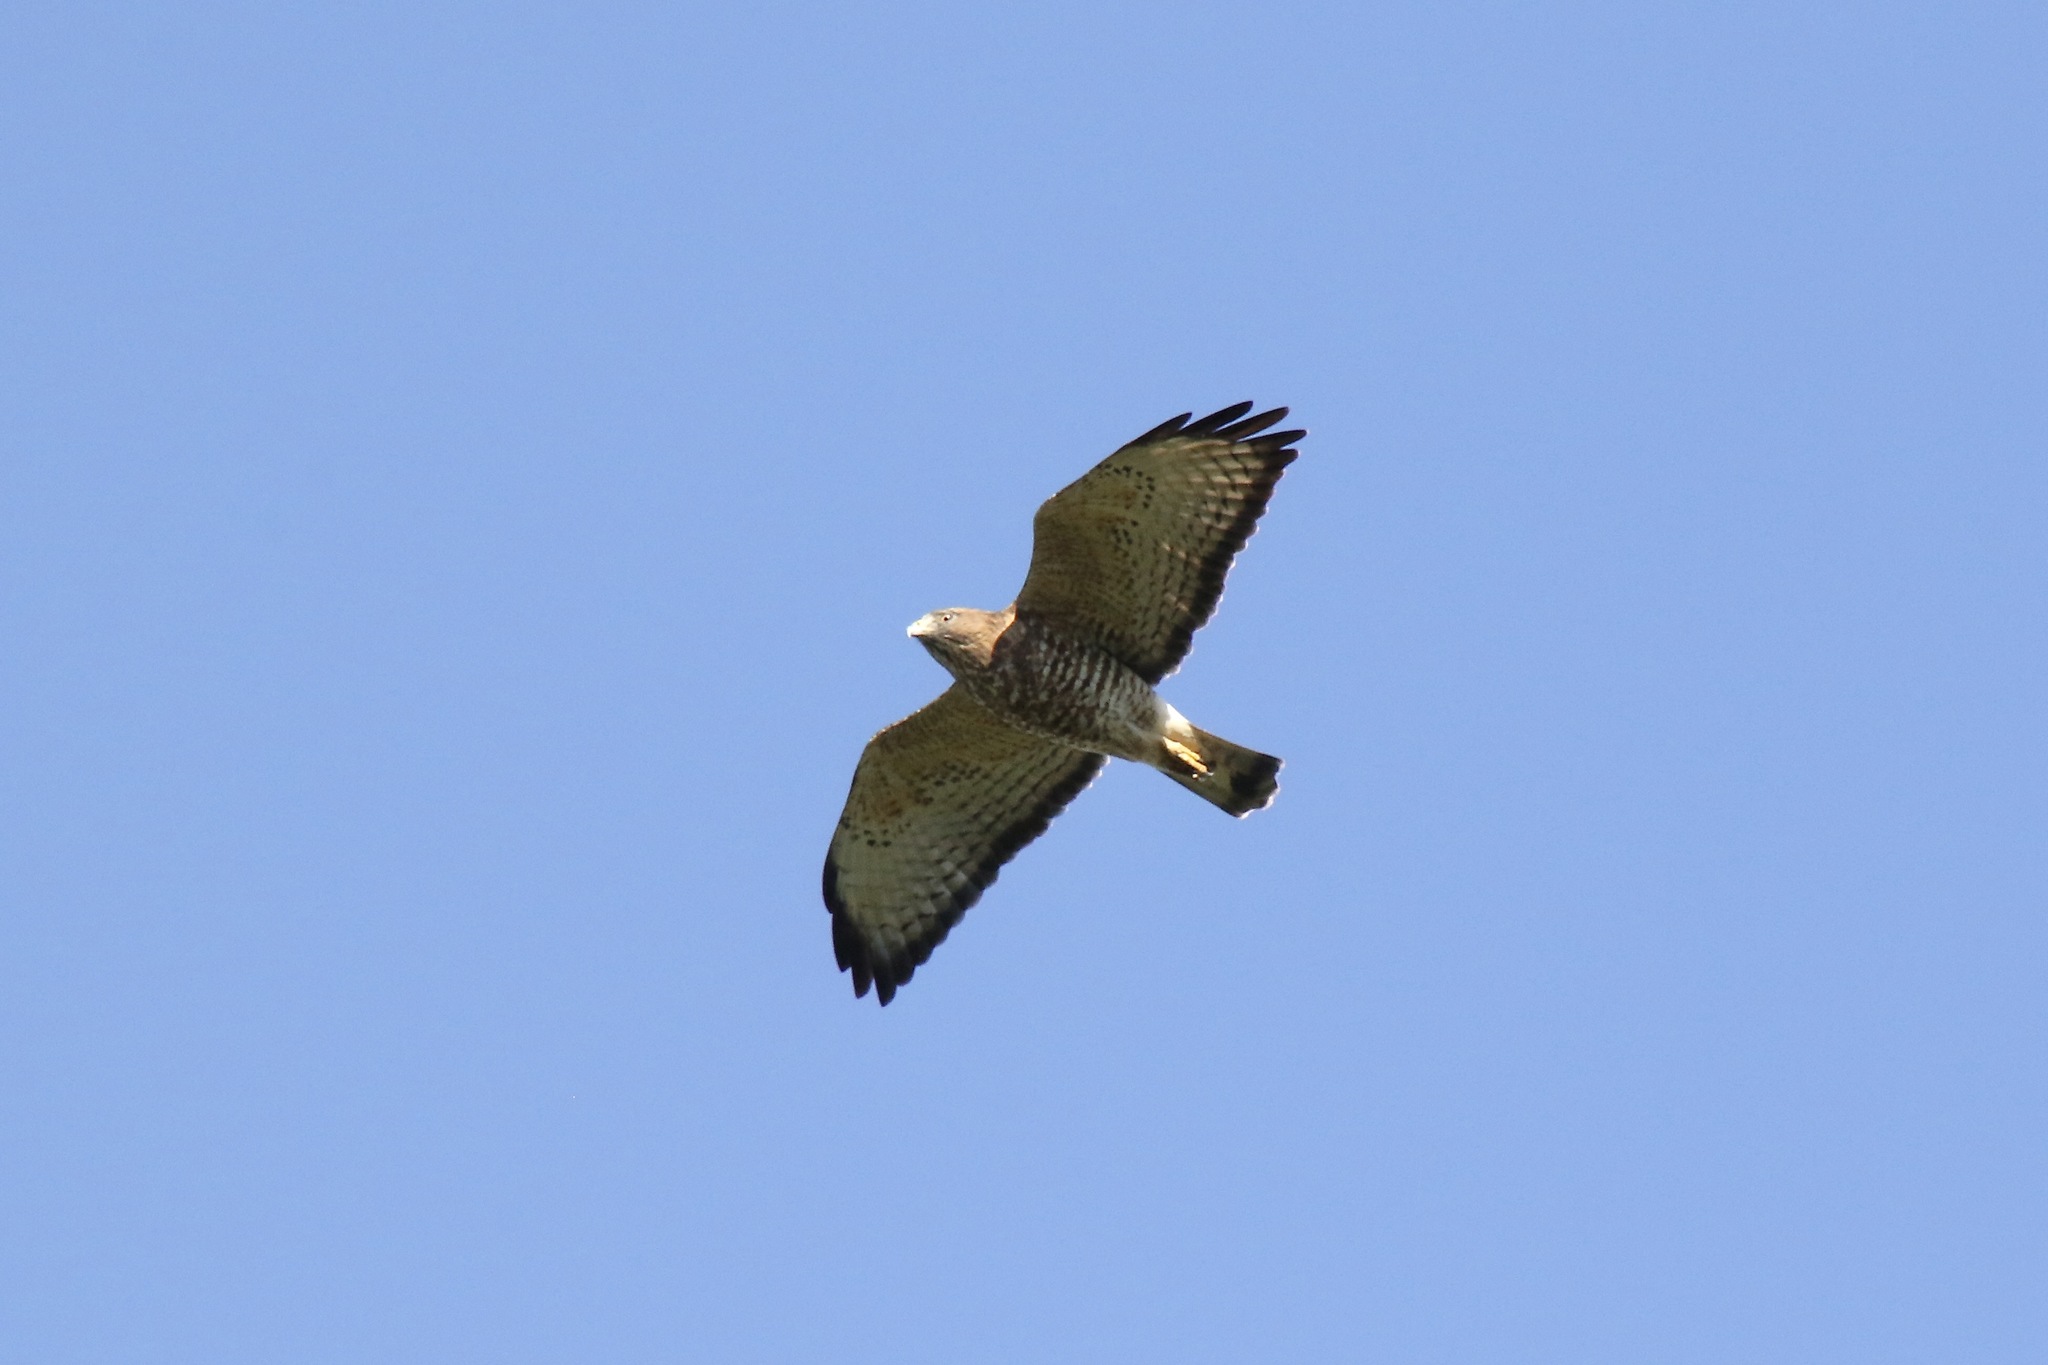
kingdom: Animalia
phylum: Chordata
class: Aves
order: Accipitriformes
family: Accipitridae
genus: Buteo
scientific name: Buteo platypterus
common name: Broad-winged hawk
